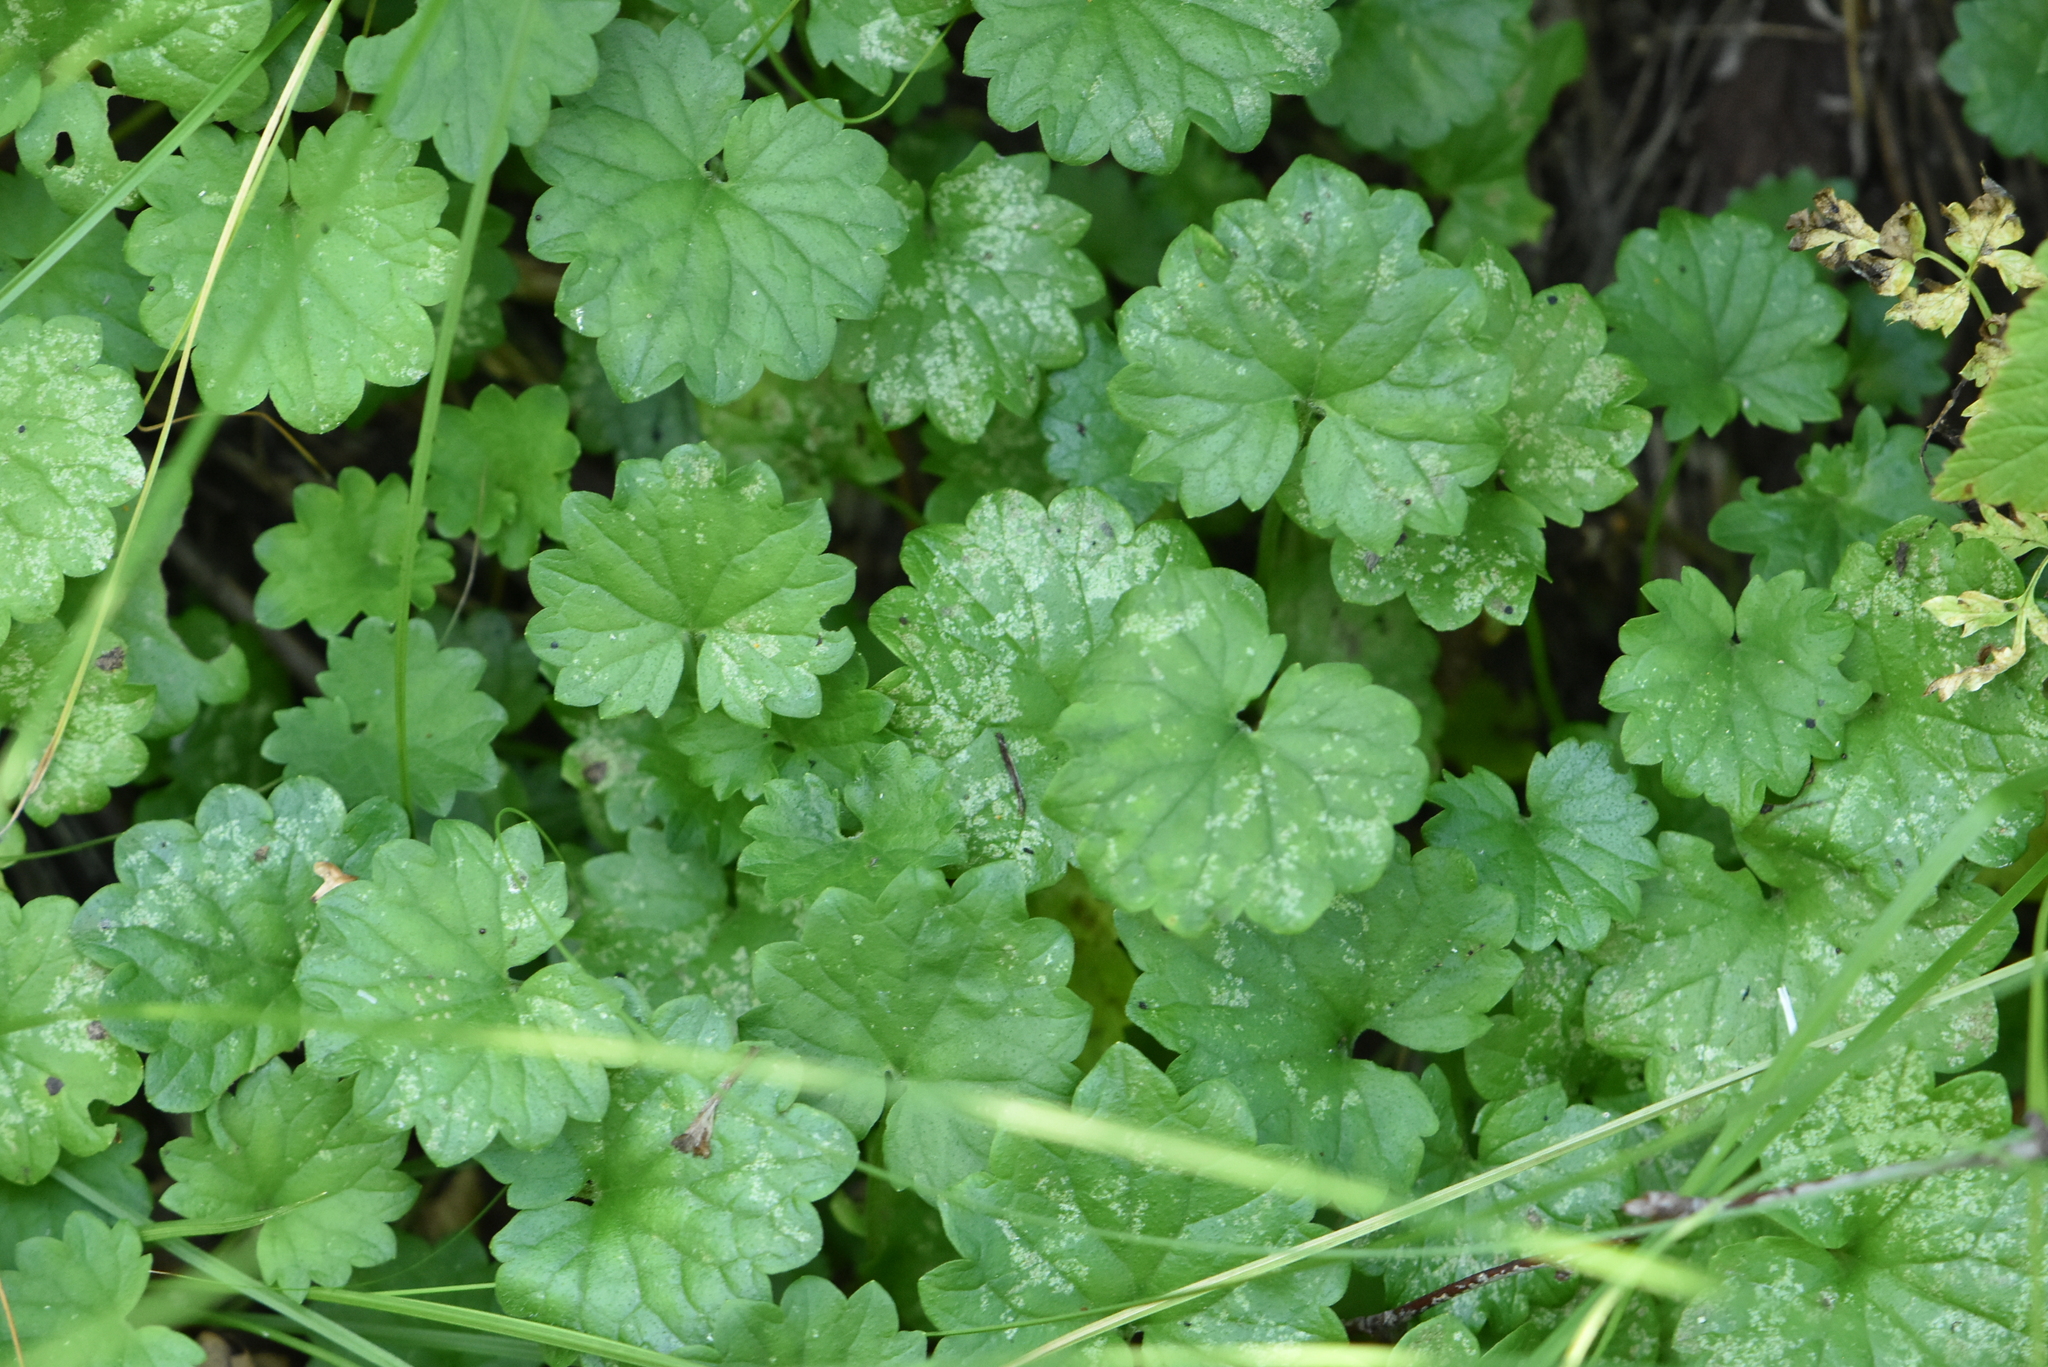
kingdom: Plantae
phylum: Tracheophyta
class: Magnoliopsida
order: Lamiales
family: Lamiaceae
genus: Glechoma
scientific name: Glechoma hederacea
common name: Ground ivy
